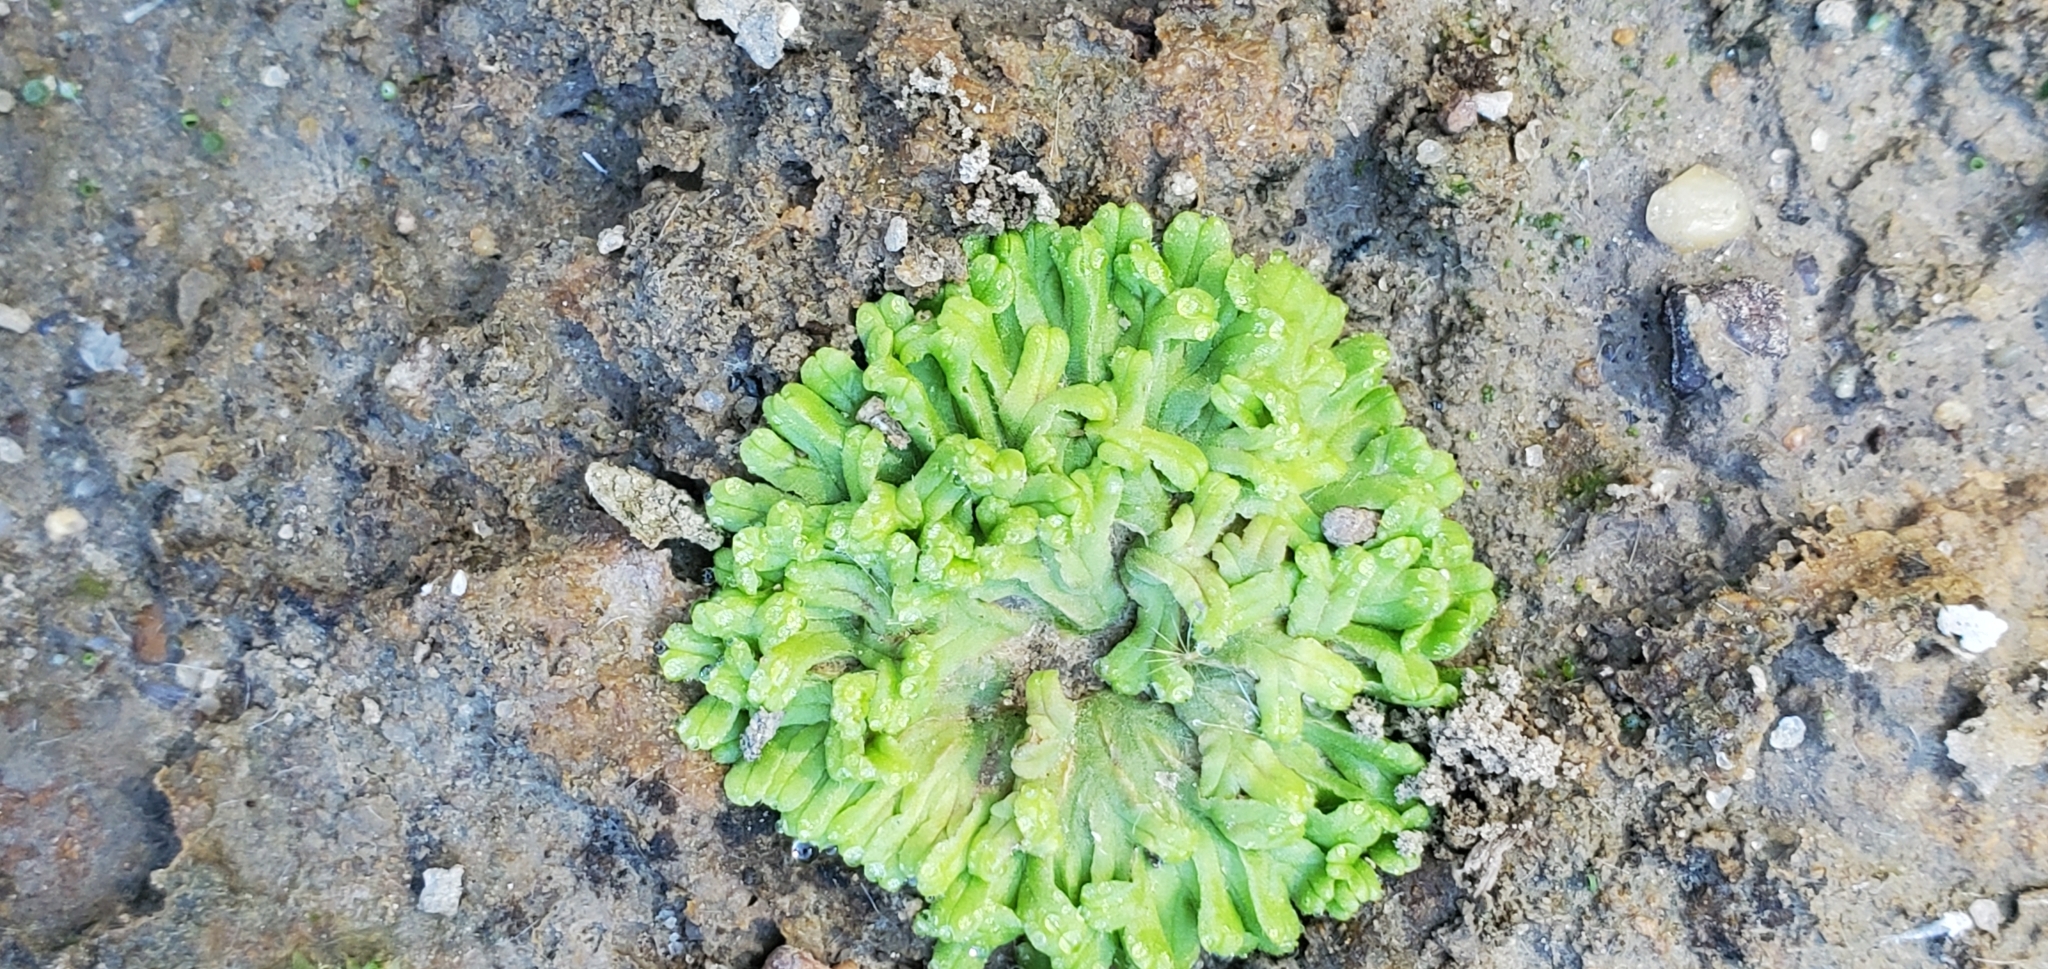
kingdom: Plantae
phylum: Marchantiophyta
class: Marchantiopsida
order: Marchantiales
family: Ricciaceae
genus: Ricciocarpos
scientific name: Ricciocarpos natans
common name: Purple-fringed liverwort
